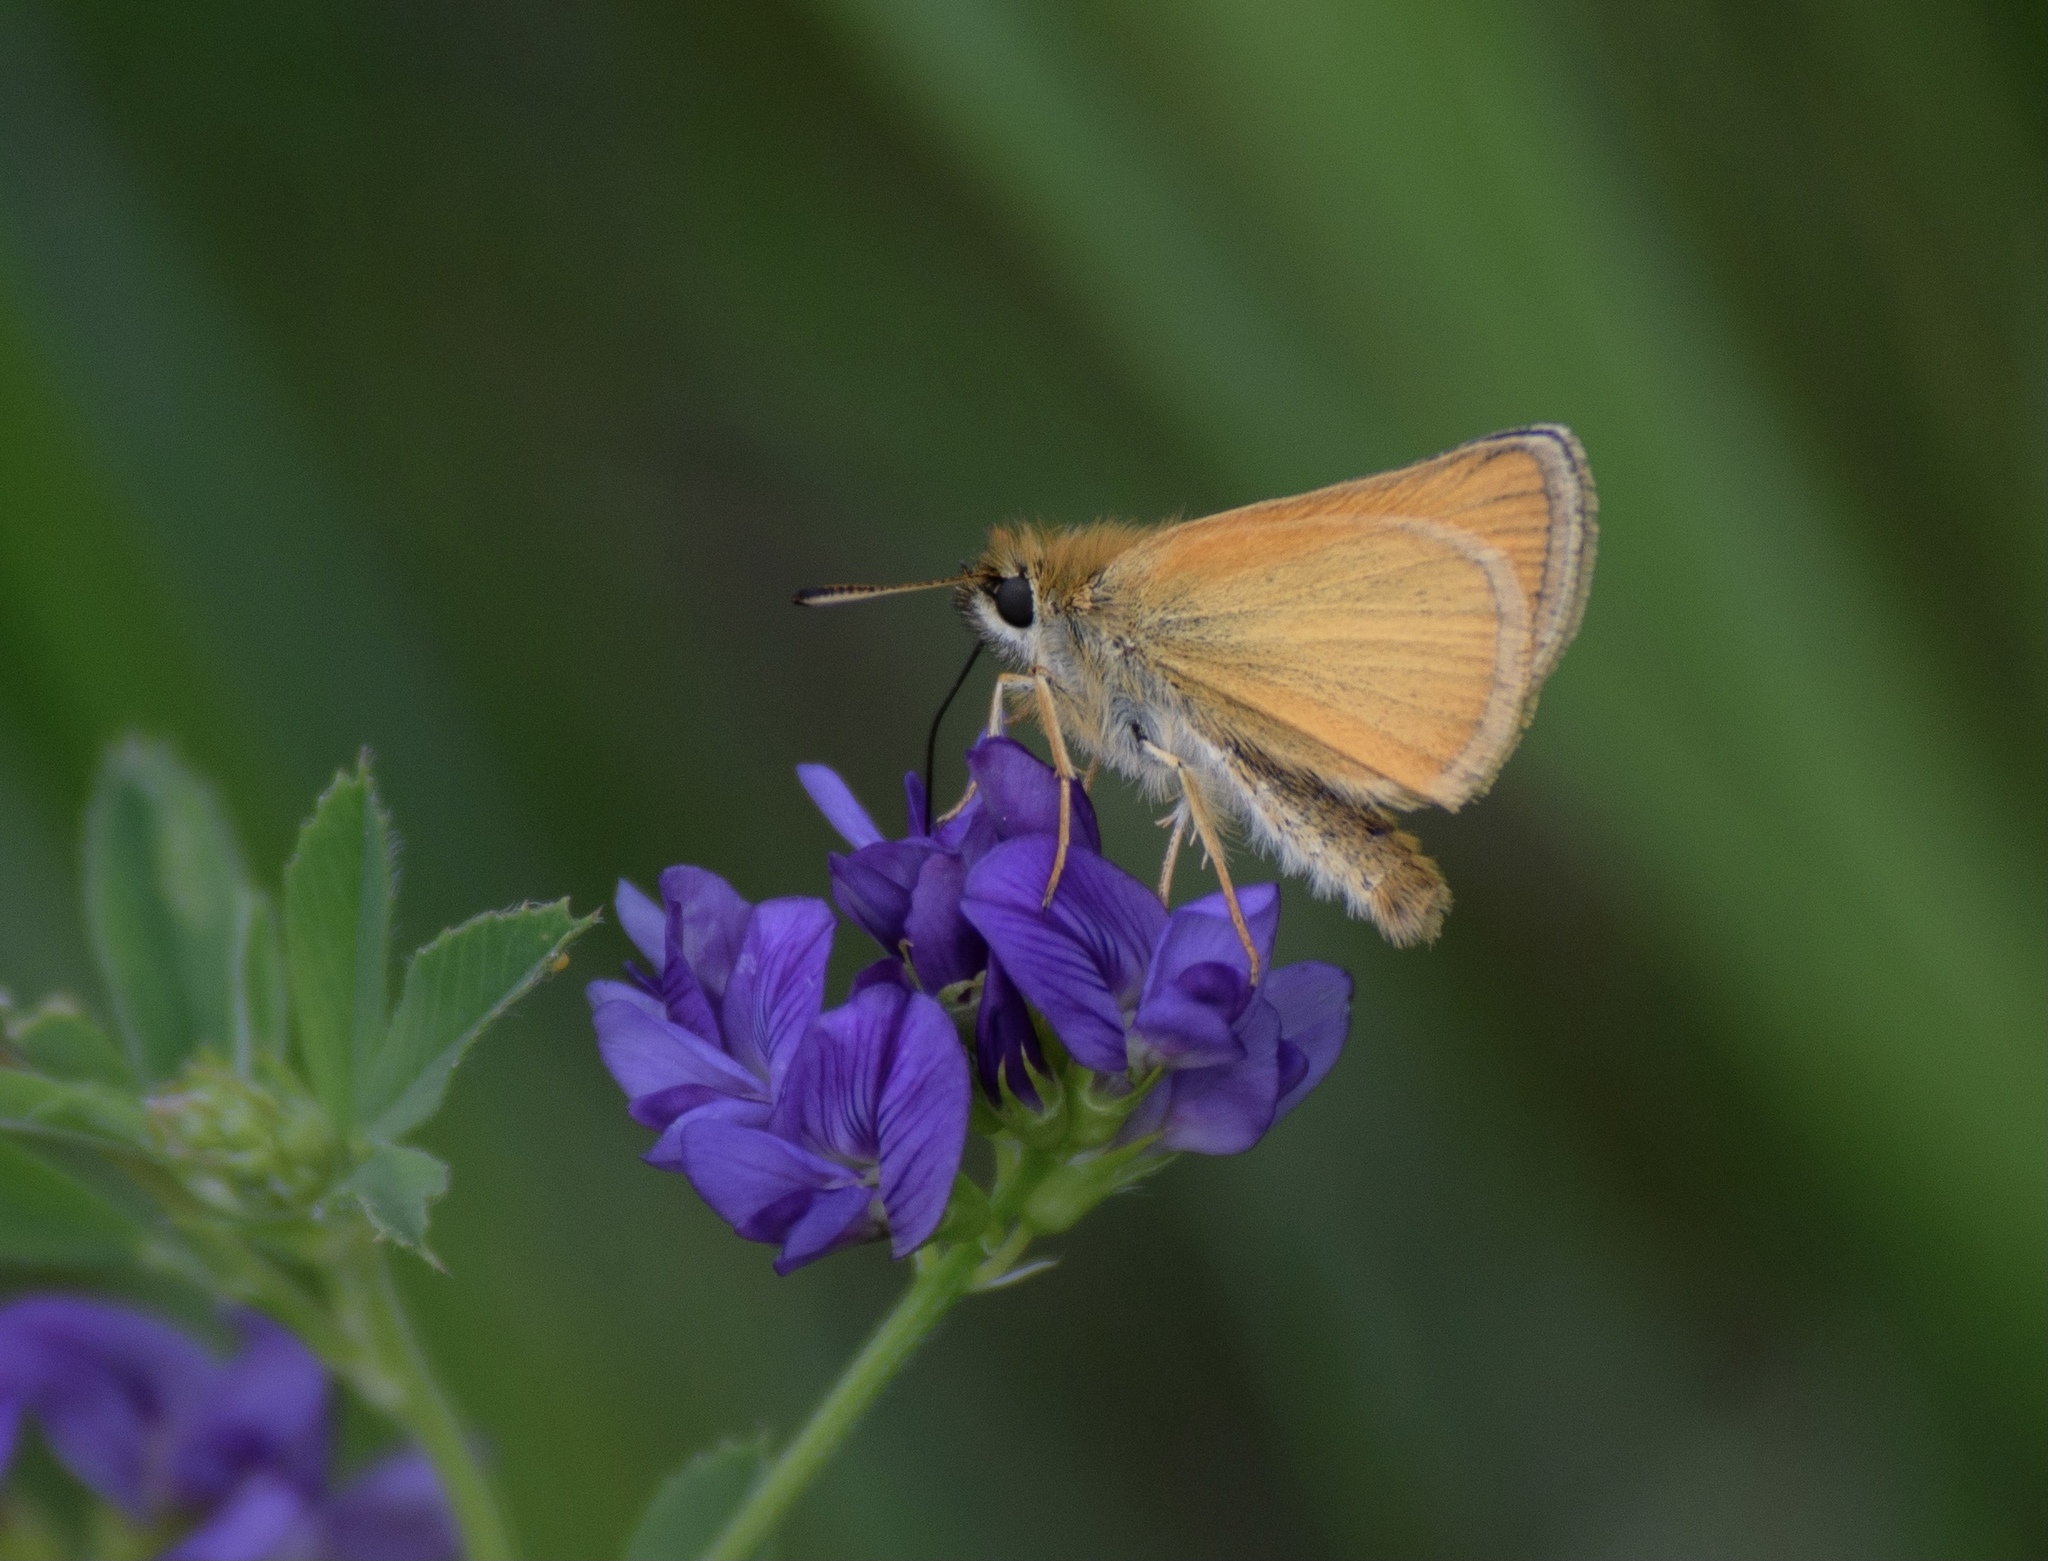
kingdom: Animalia
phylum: Arthropoda
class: Insecta
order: Lepidoptera
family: Hesperiidae
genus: Thymelicus
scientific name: Thymelicus lineola
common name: Essex skipper
